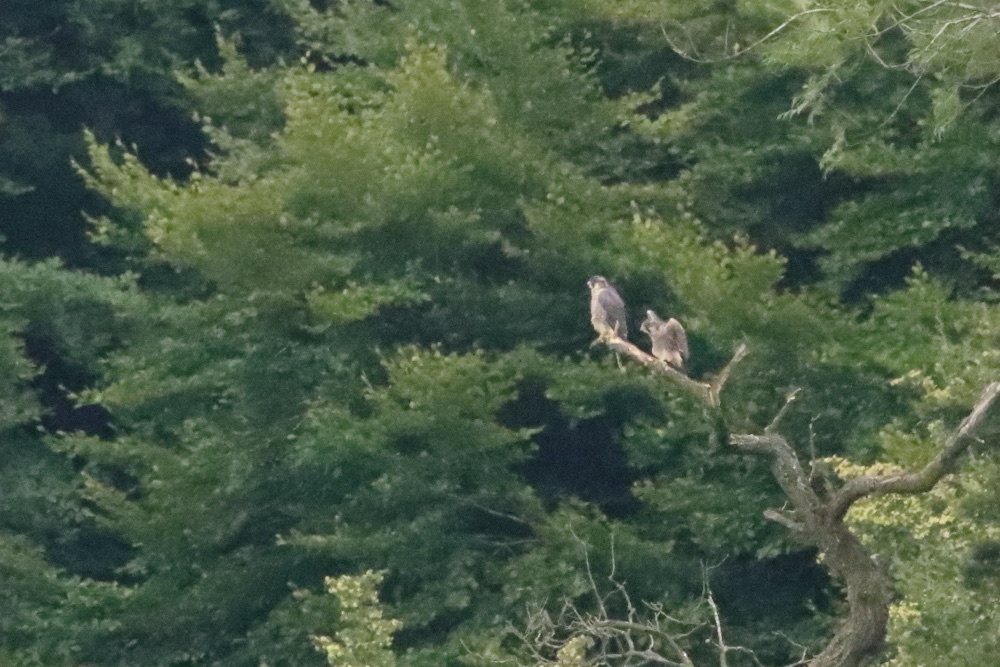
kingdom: Animalia
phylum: Chordata
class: Aves
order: Falconiformes
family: Falconidae
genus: Falco
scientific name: Falco peregrinus
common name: Peregrine falcon
